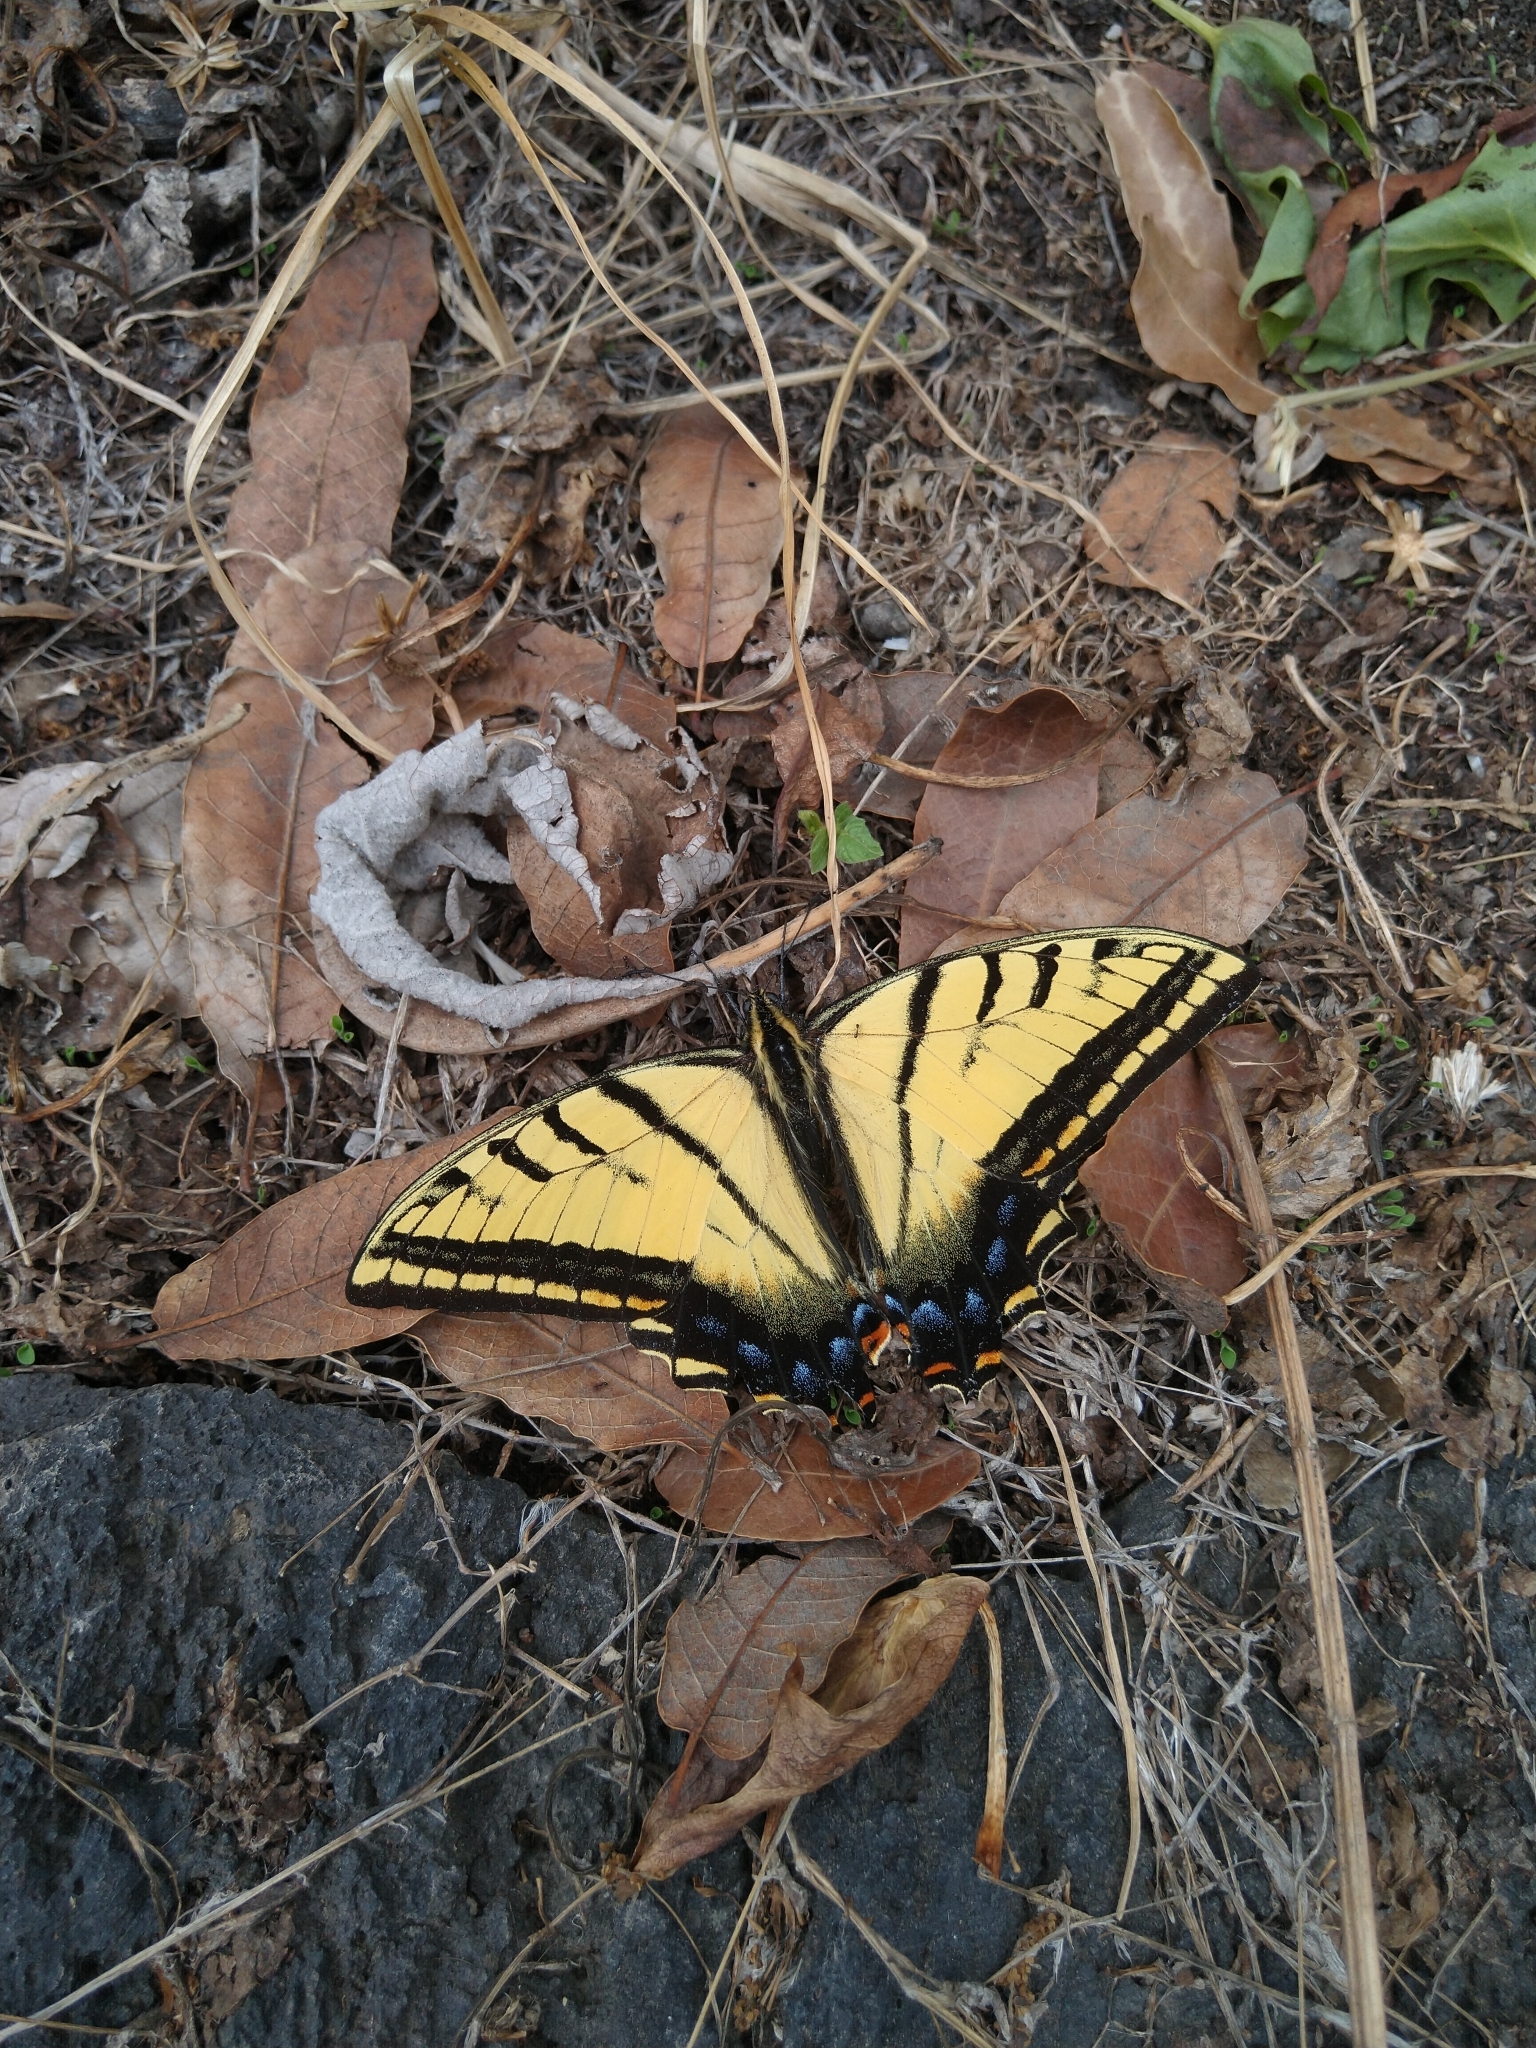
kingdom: Animalia
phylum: Arthropoda
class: Insecta
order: Lepidoptera
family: Papilionidae
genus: Papilio
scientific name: Papilio multicaudata
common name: Two-tailed tiger swallowtail
